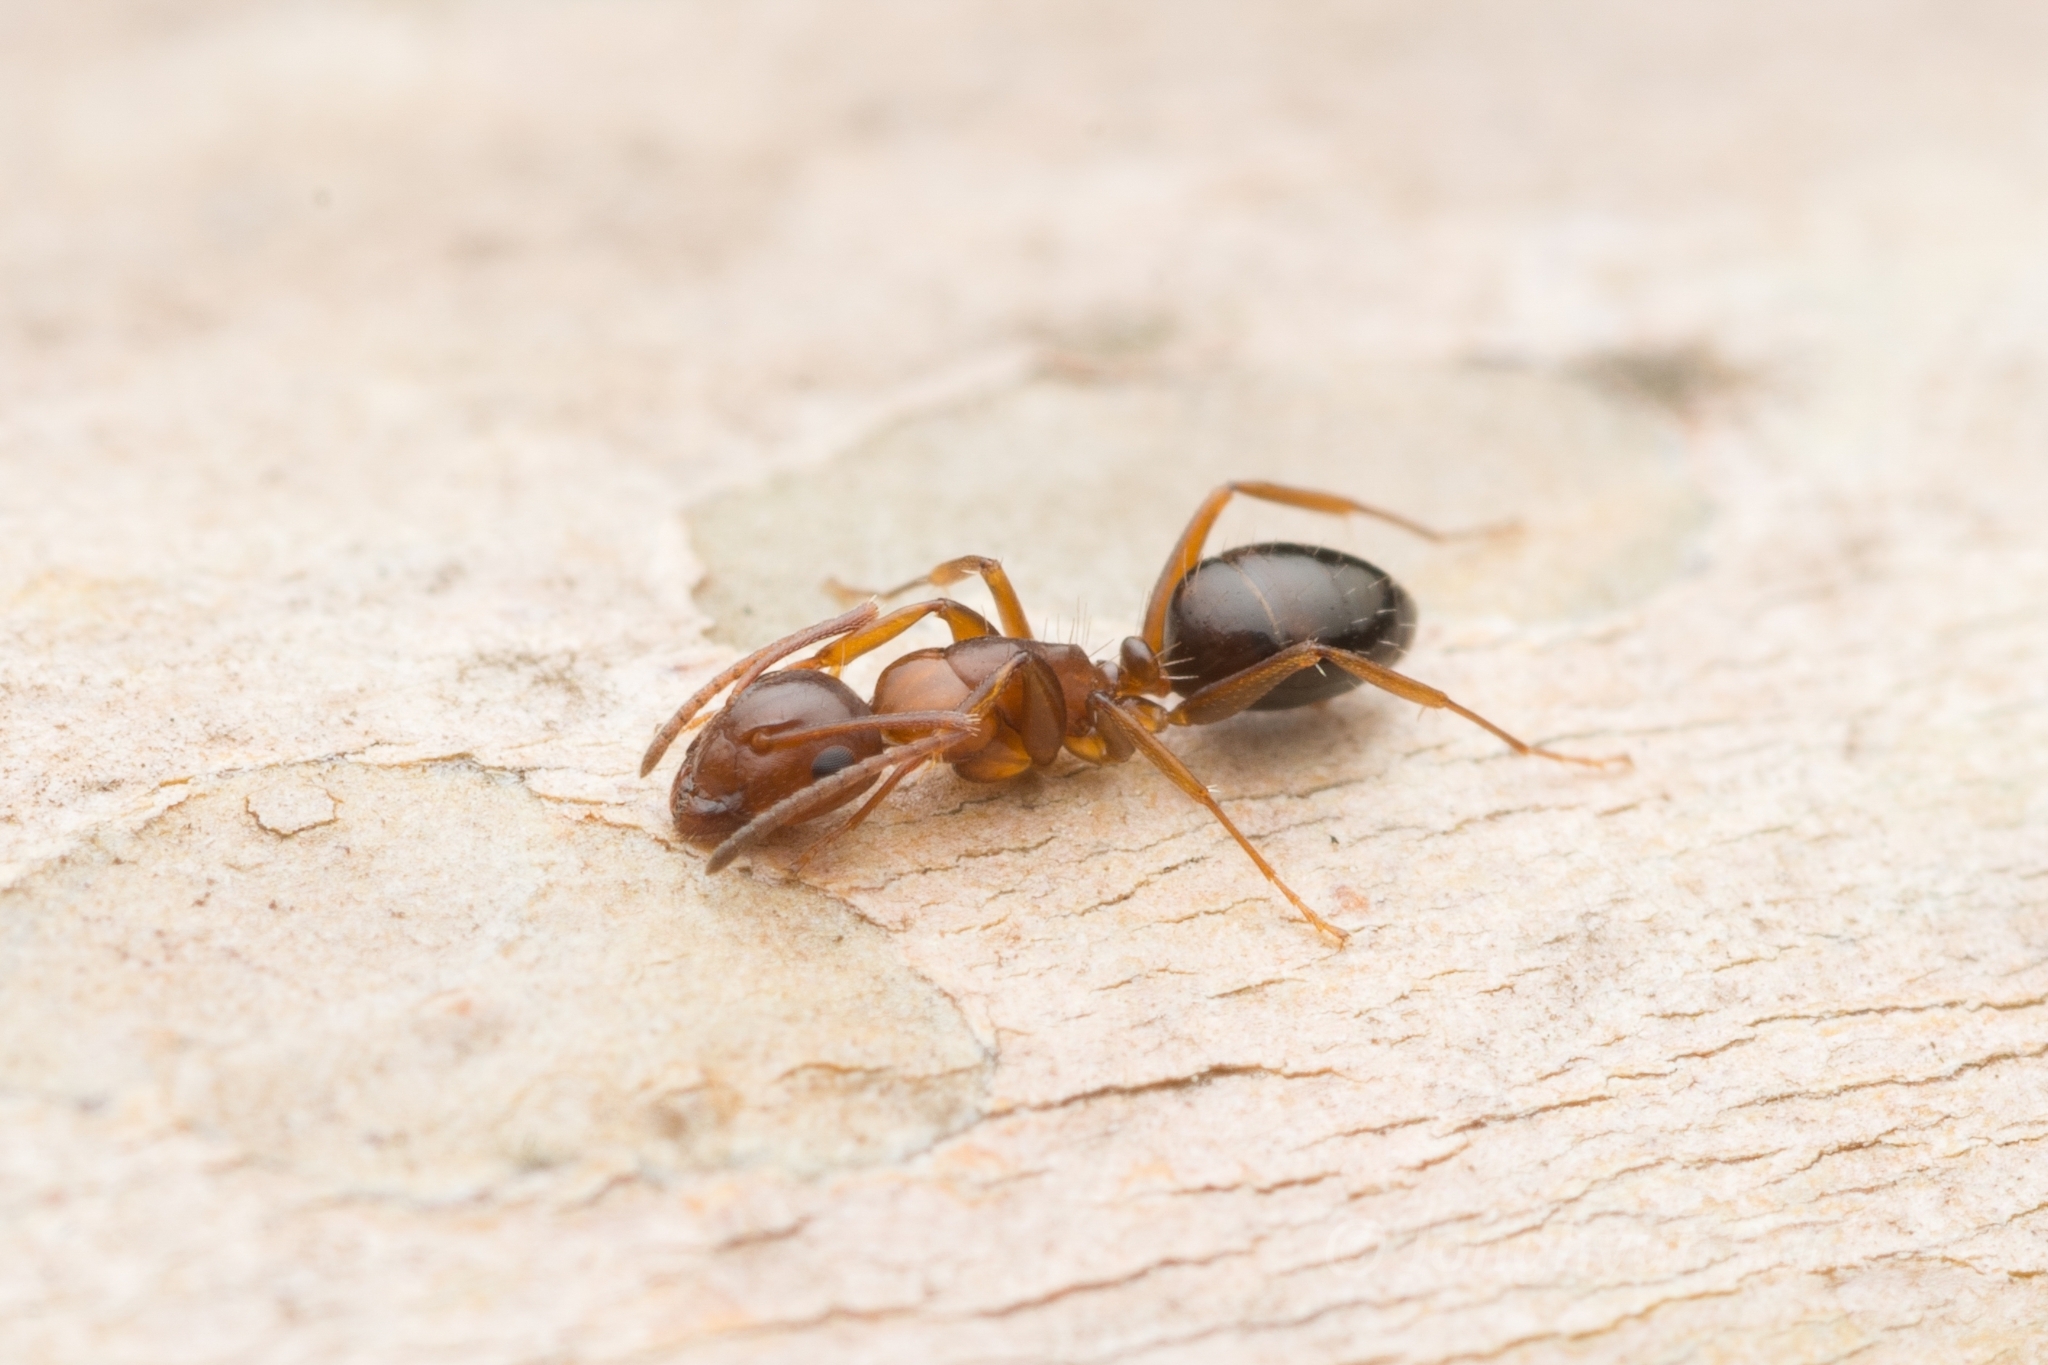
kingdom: Animalia
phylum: Arthropoda
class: Insecta
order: Hymenoptera
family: Formicidae
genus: Camponotus
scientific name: Camponotus vitiosus
